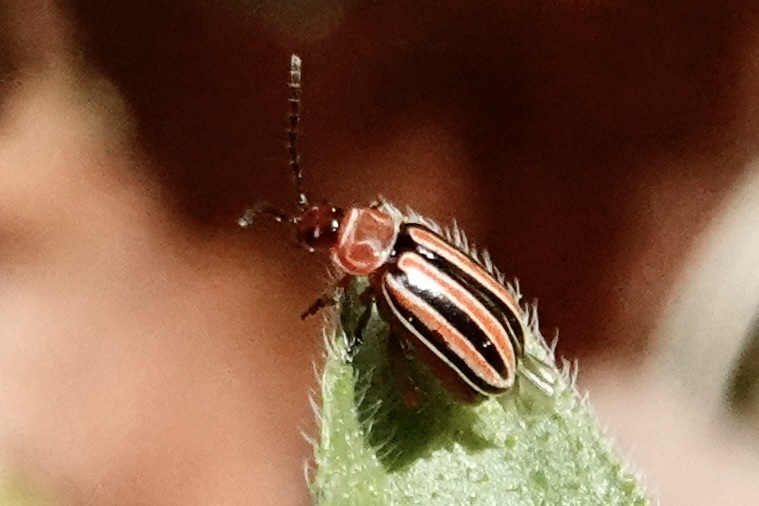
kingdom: Animalia
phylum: Arthropoda
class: Insecta
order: Coleoptera
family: Chrysomelidae
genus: Disonycha
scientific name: Disonycha admirabila
